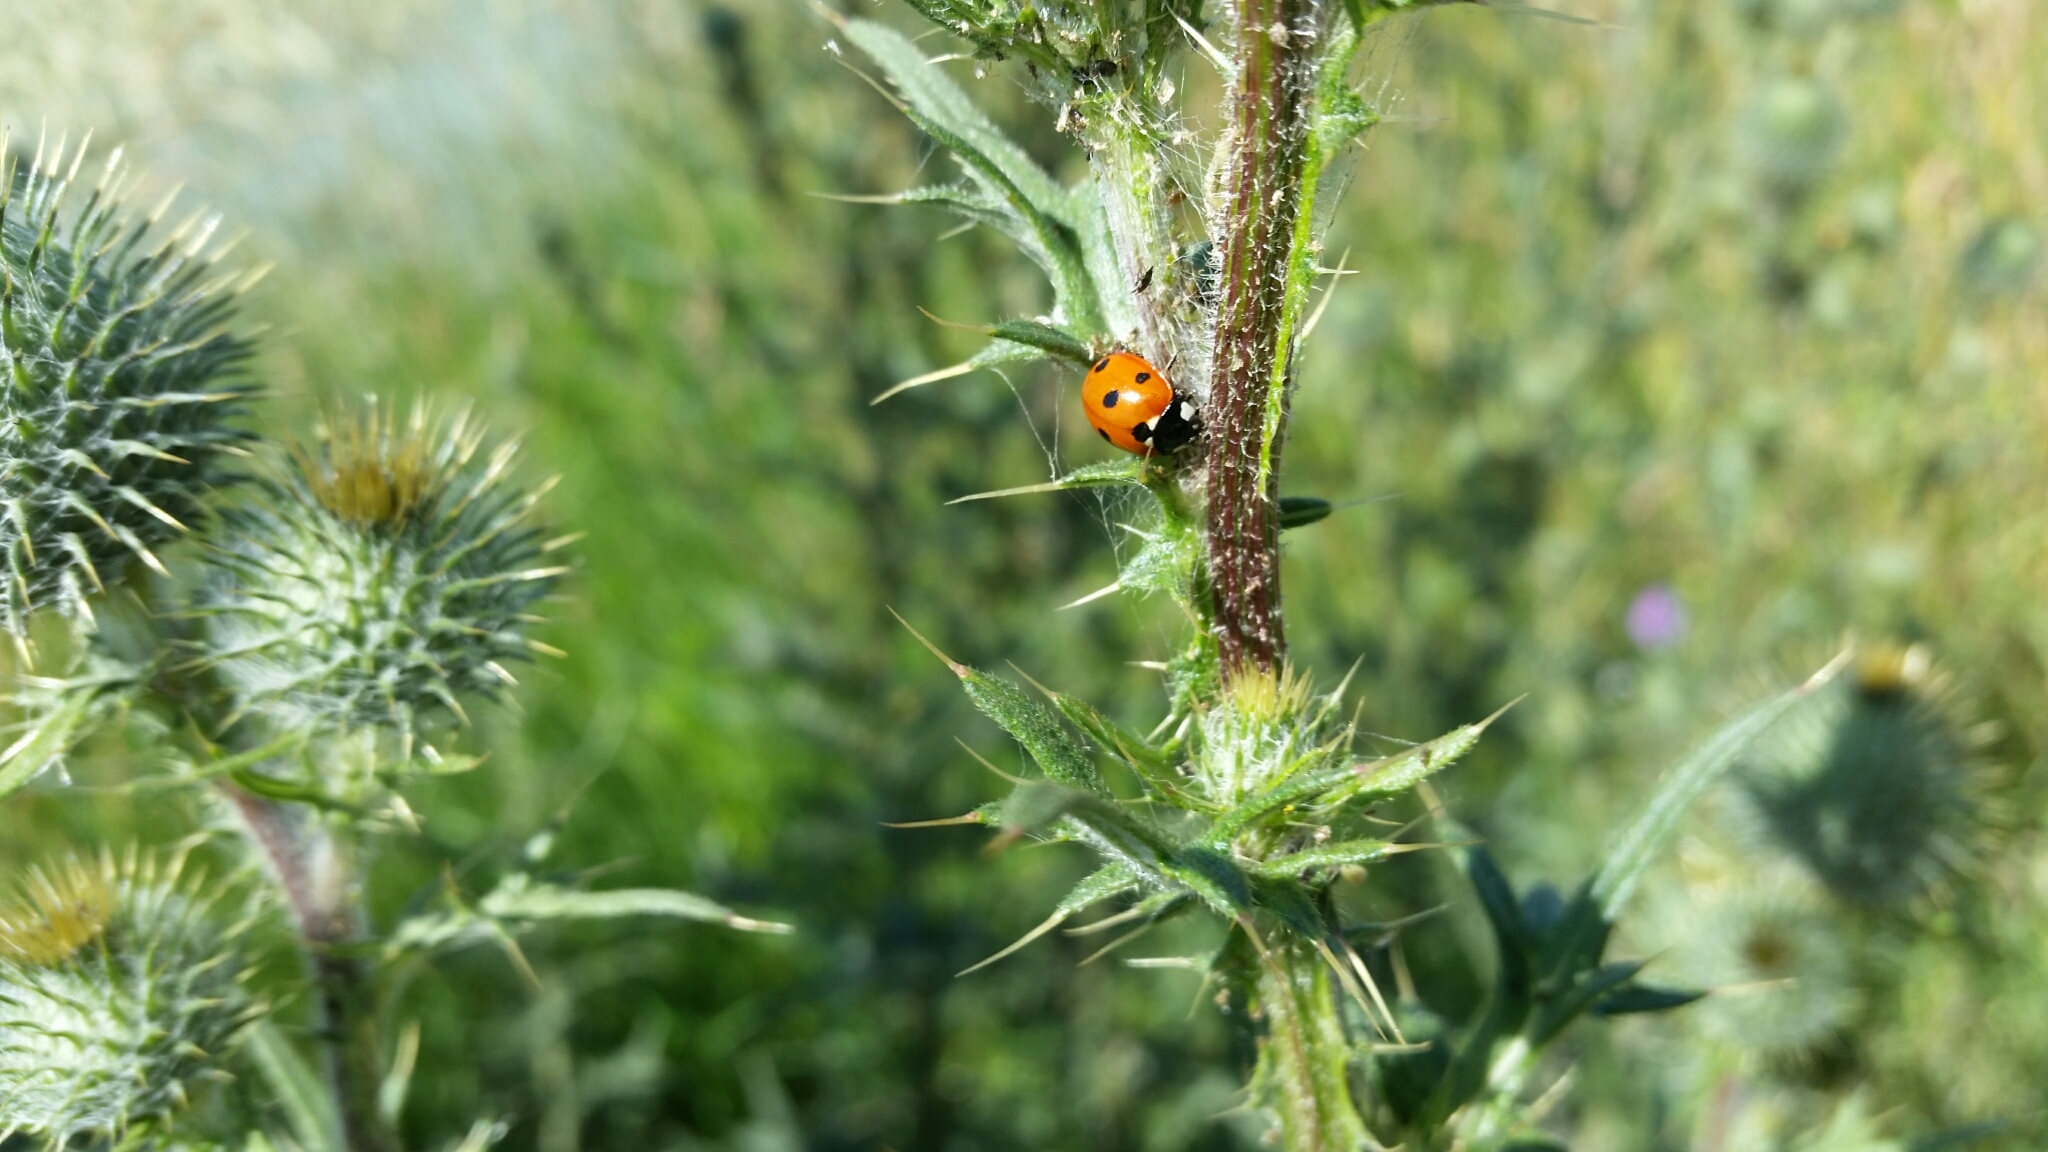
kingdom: Animalia
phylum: Arthropoda
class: Insecta
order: Coleoptera
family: Coccinellidae
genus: Coccinella
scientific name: Coccinella septempunctata
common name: Sevenspotted lady beetle
